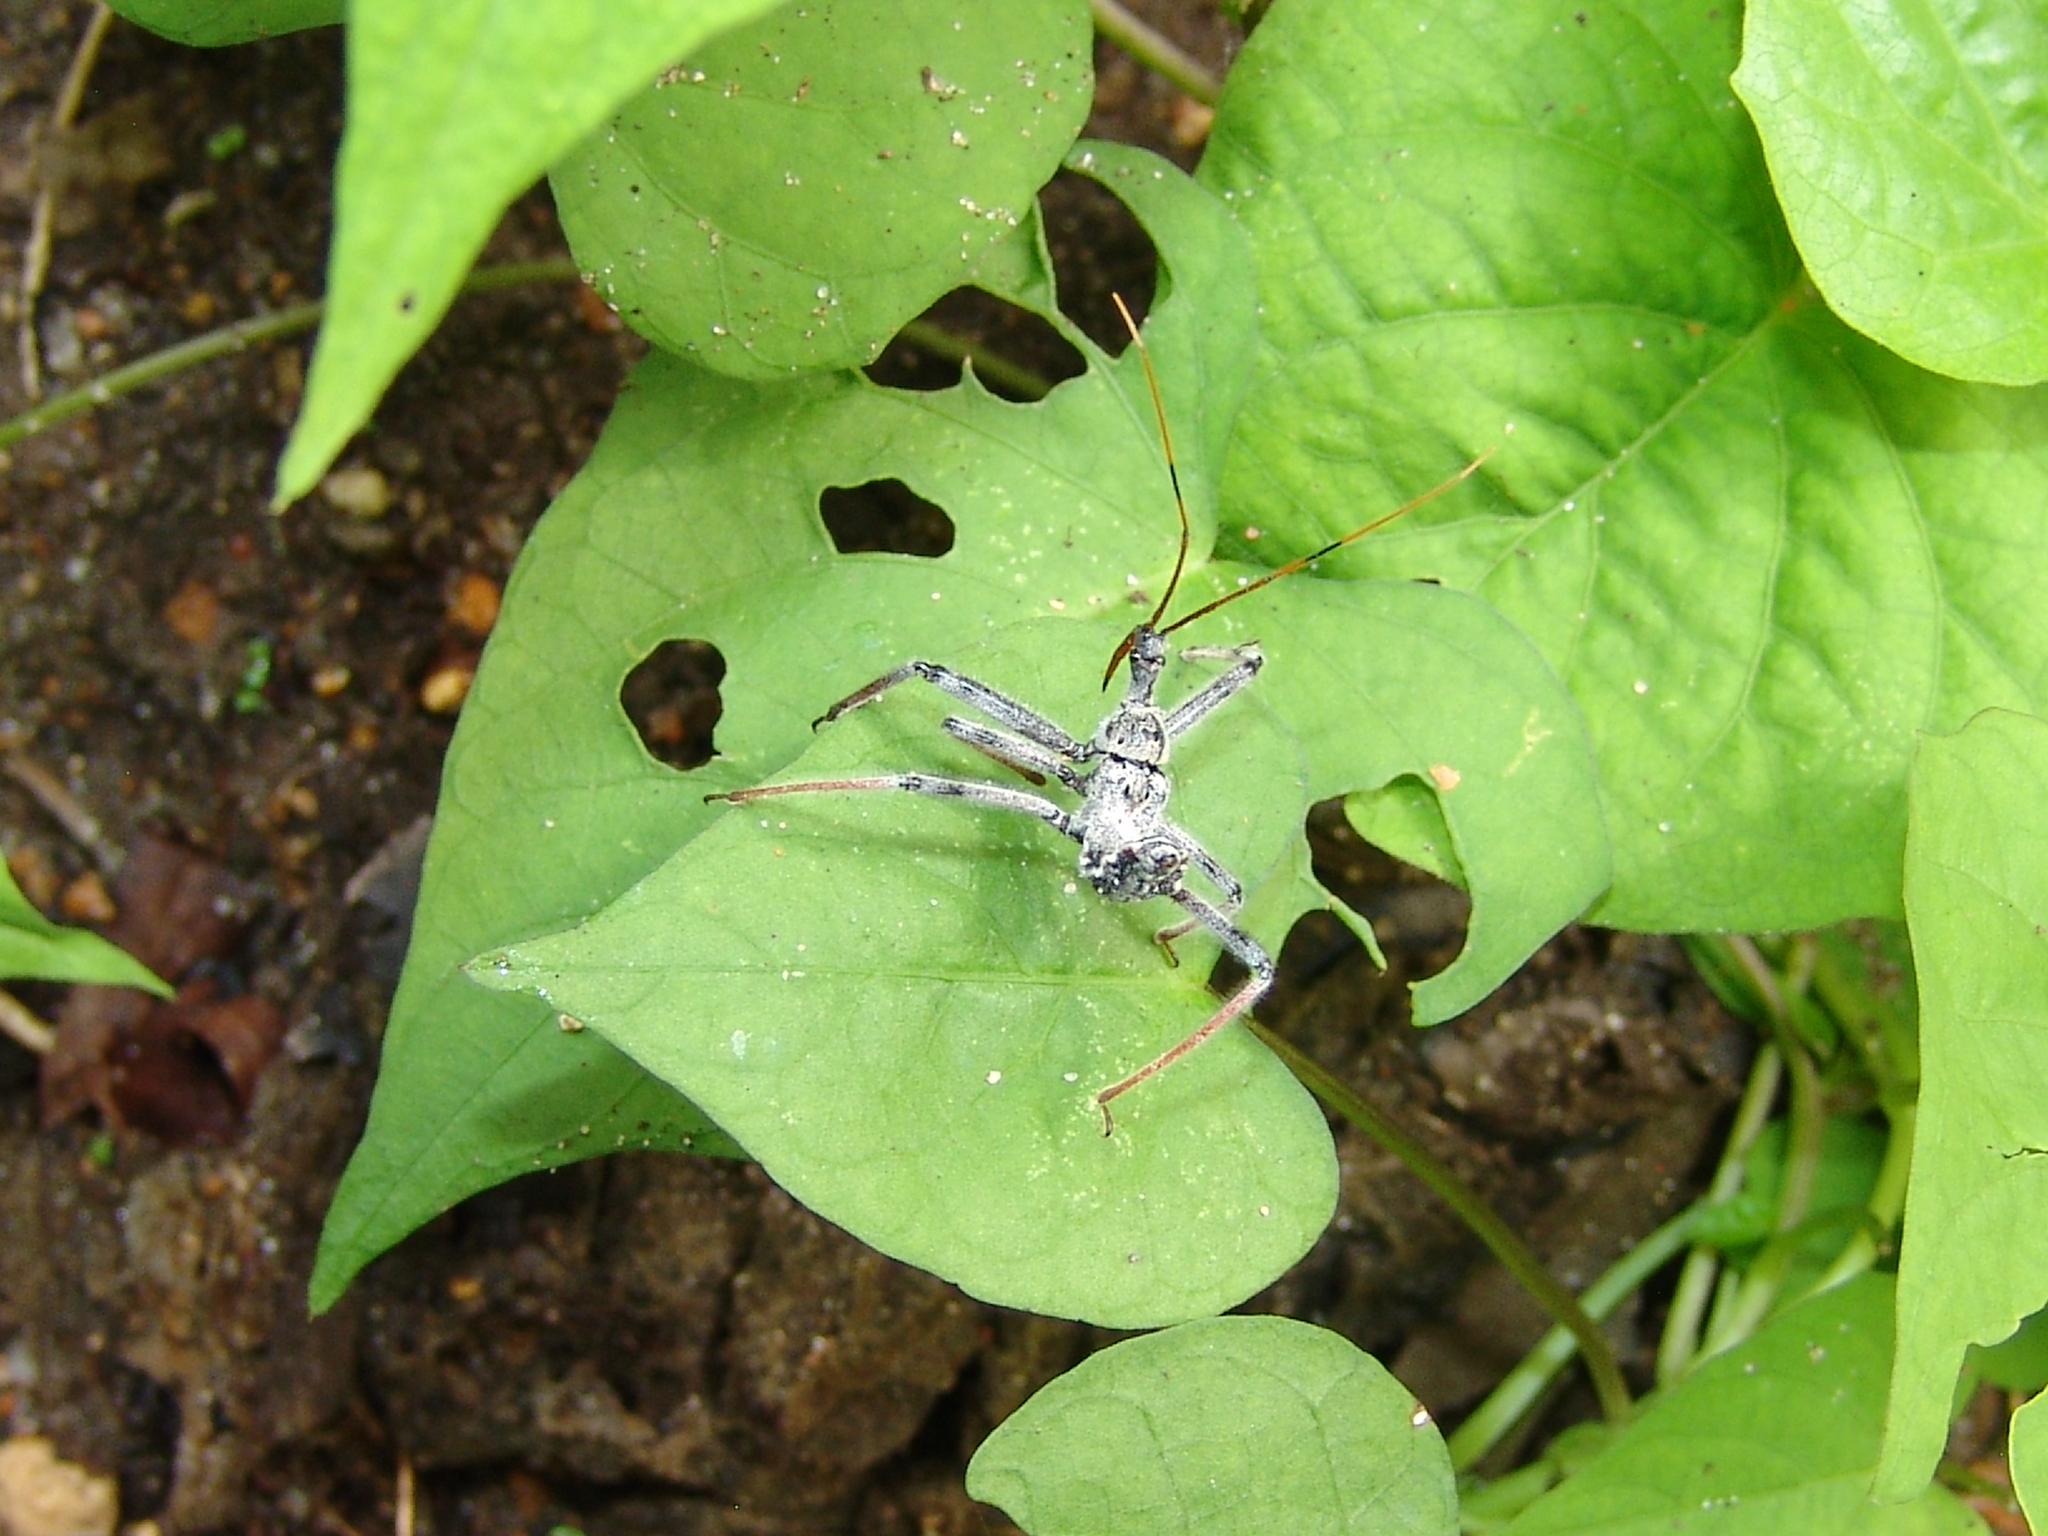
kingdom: Animalia
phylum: Arthropoda
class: Insecta
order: Hemiptera
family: Reduviidae
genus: Arilus
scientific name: Arilus cristatus
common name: North american wheel bug
